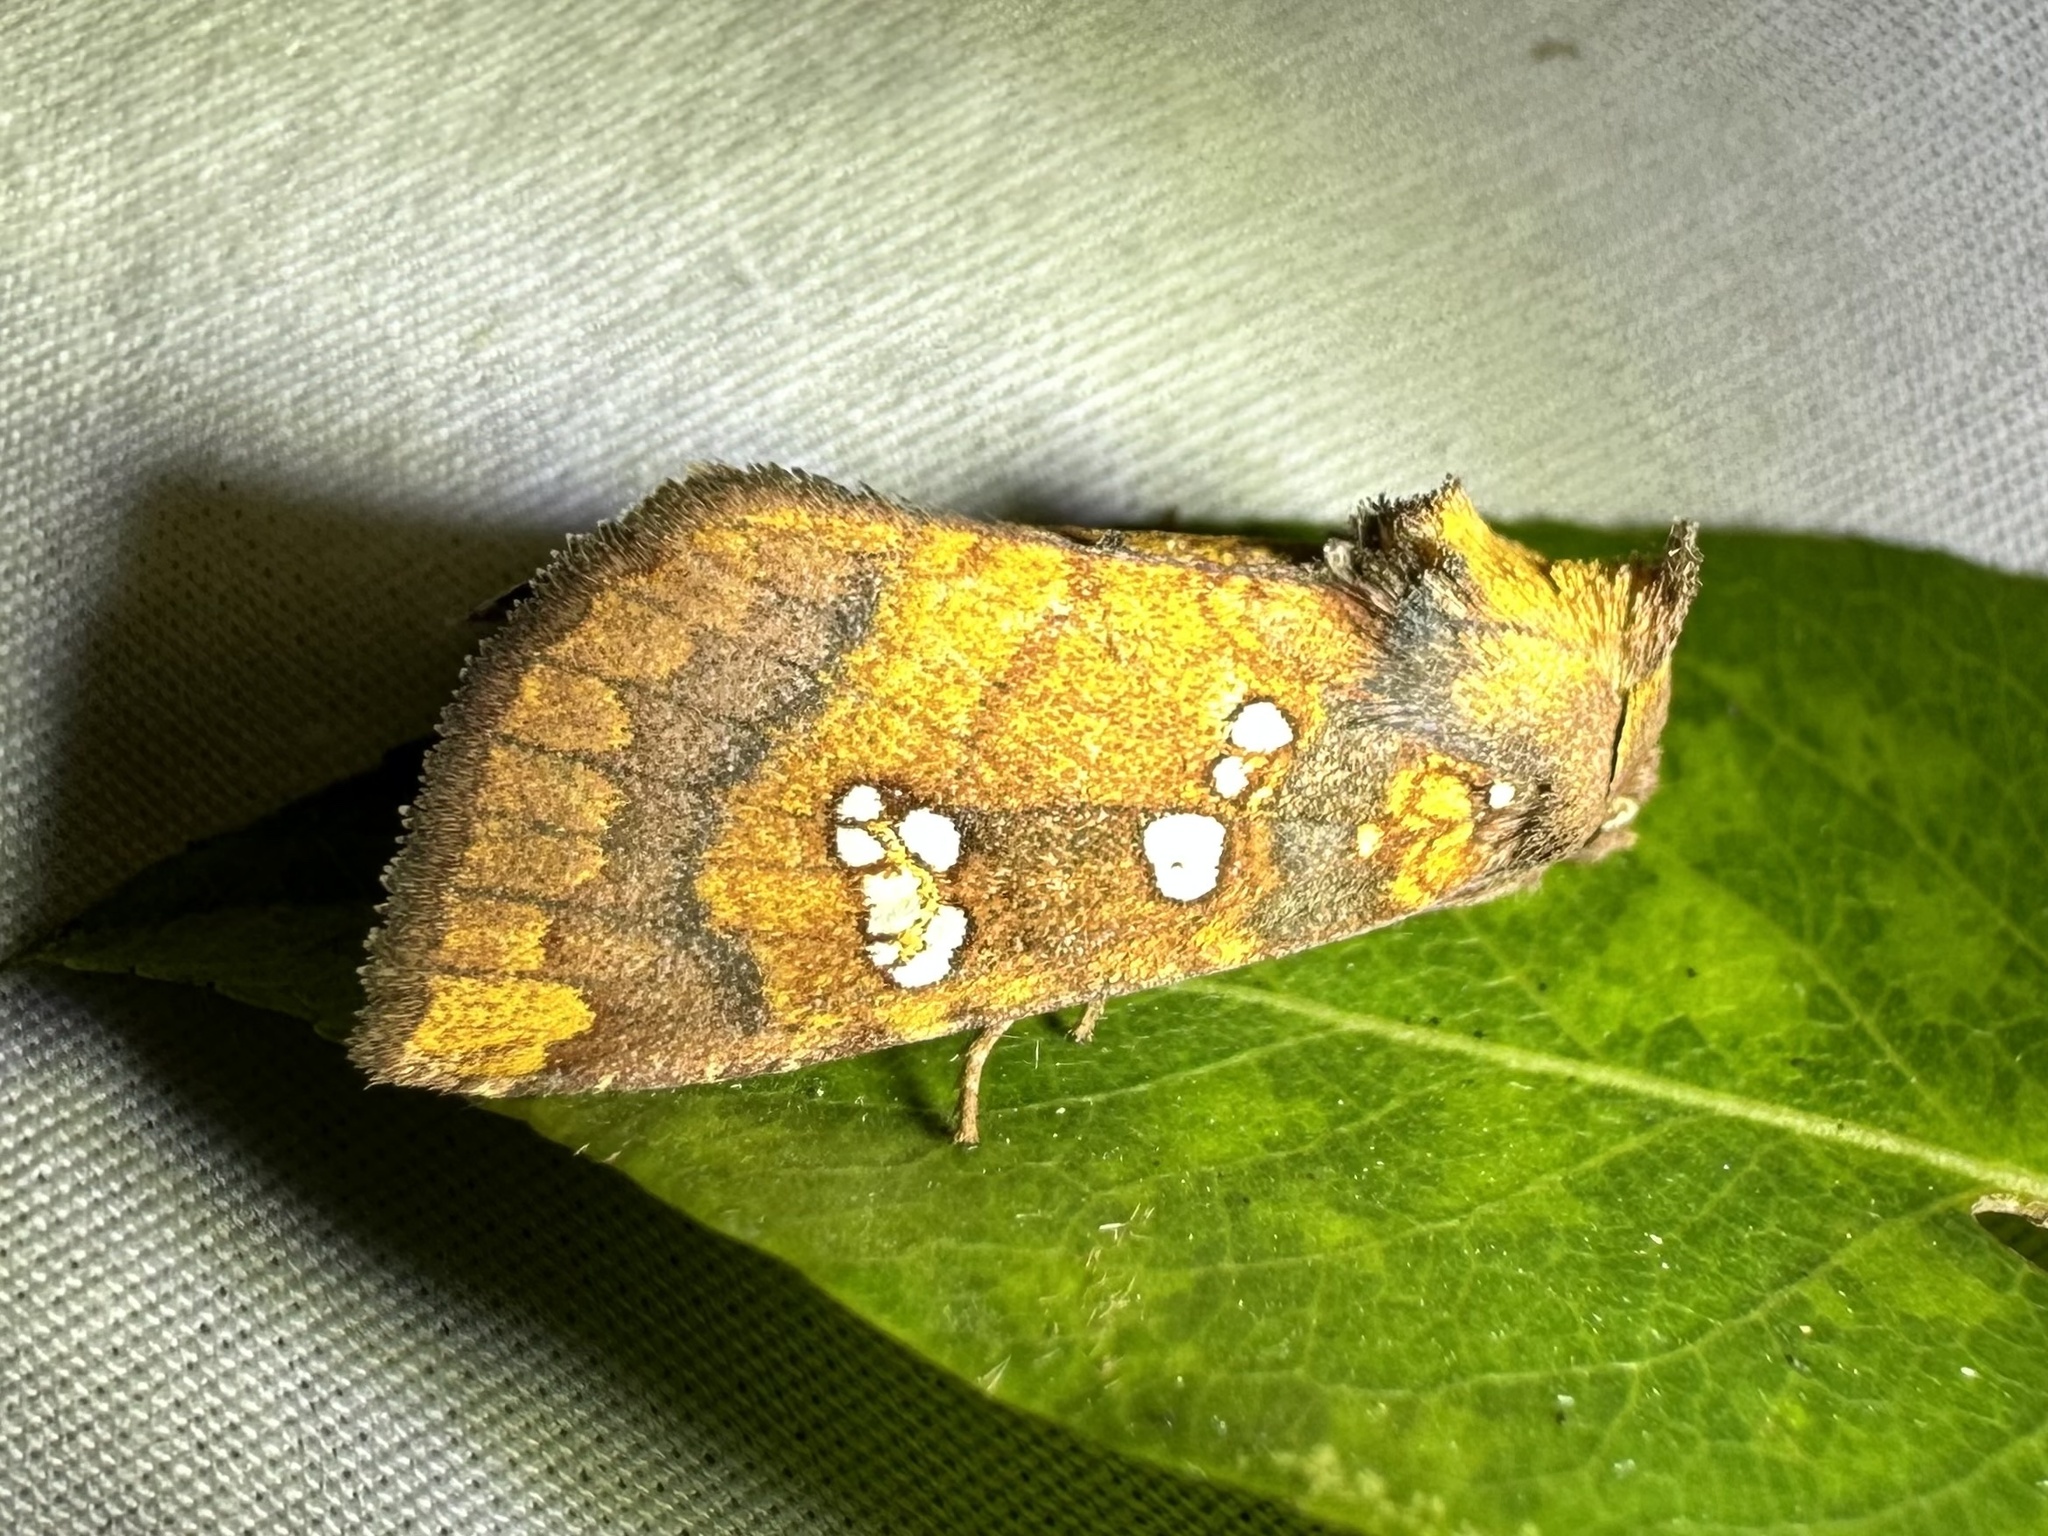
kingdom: Animalia
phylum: Arthropoda
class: Insecta
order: Lepidoptera
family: Noctuidae
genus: Papaipema
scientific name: Papaipema baptisiae
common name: Wild indigo borer moth
